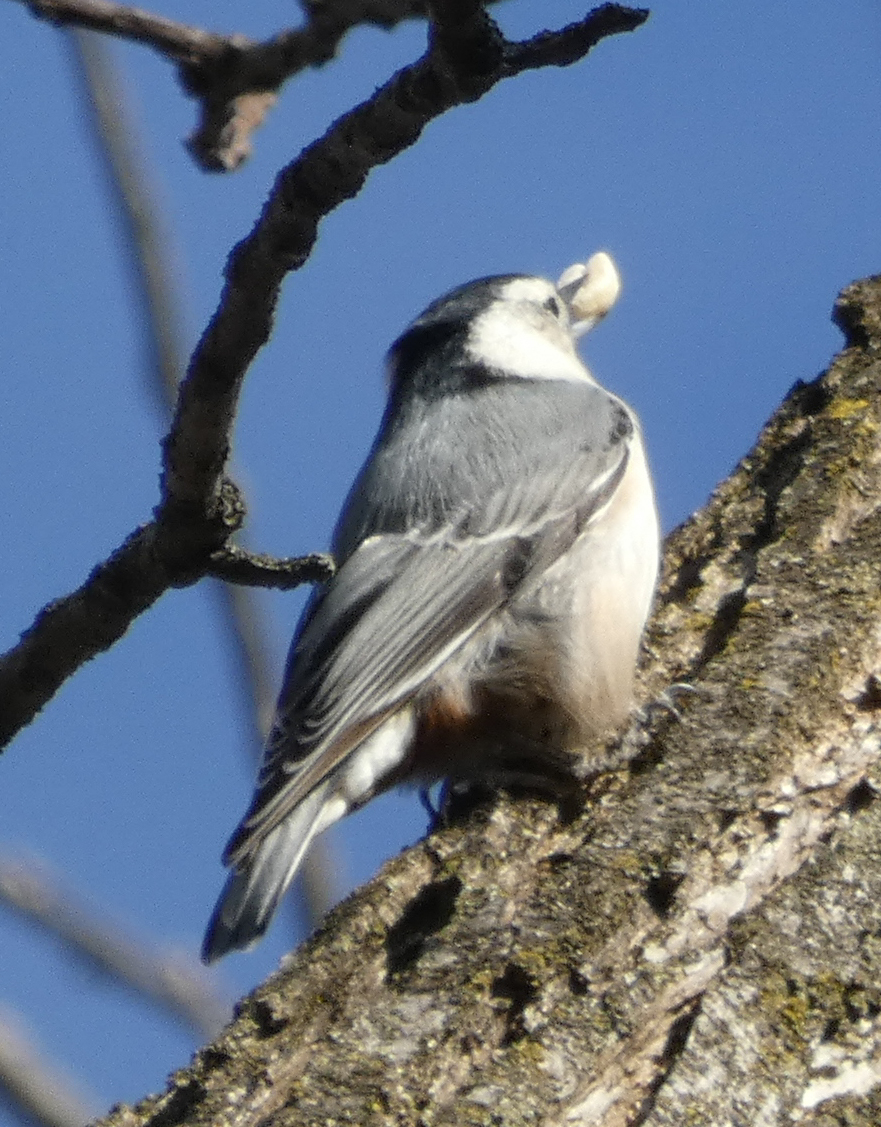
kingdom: Animalia
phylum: Chordata
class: Aves
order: Passeriformes
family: Sittidae
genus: Sitta
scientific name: Sitta carolinensis
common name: White-breasted nuthatch
